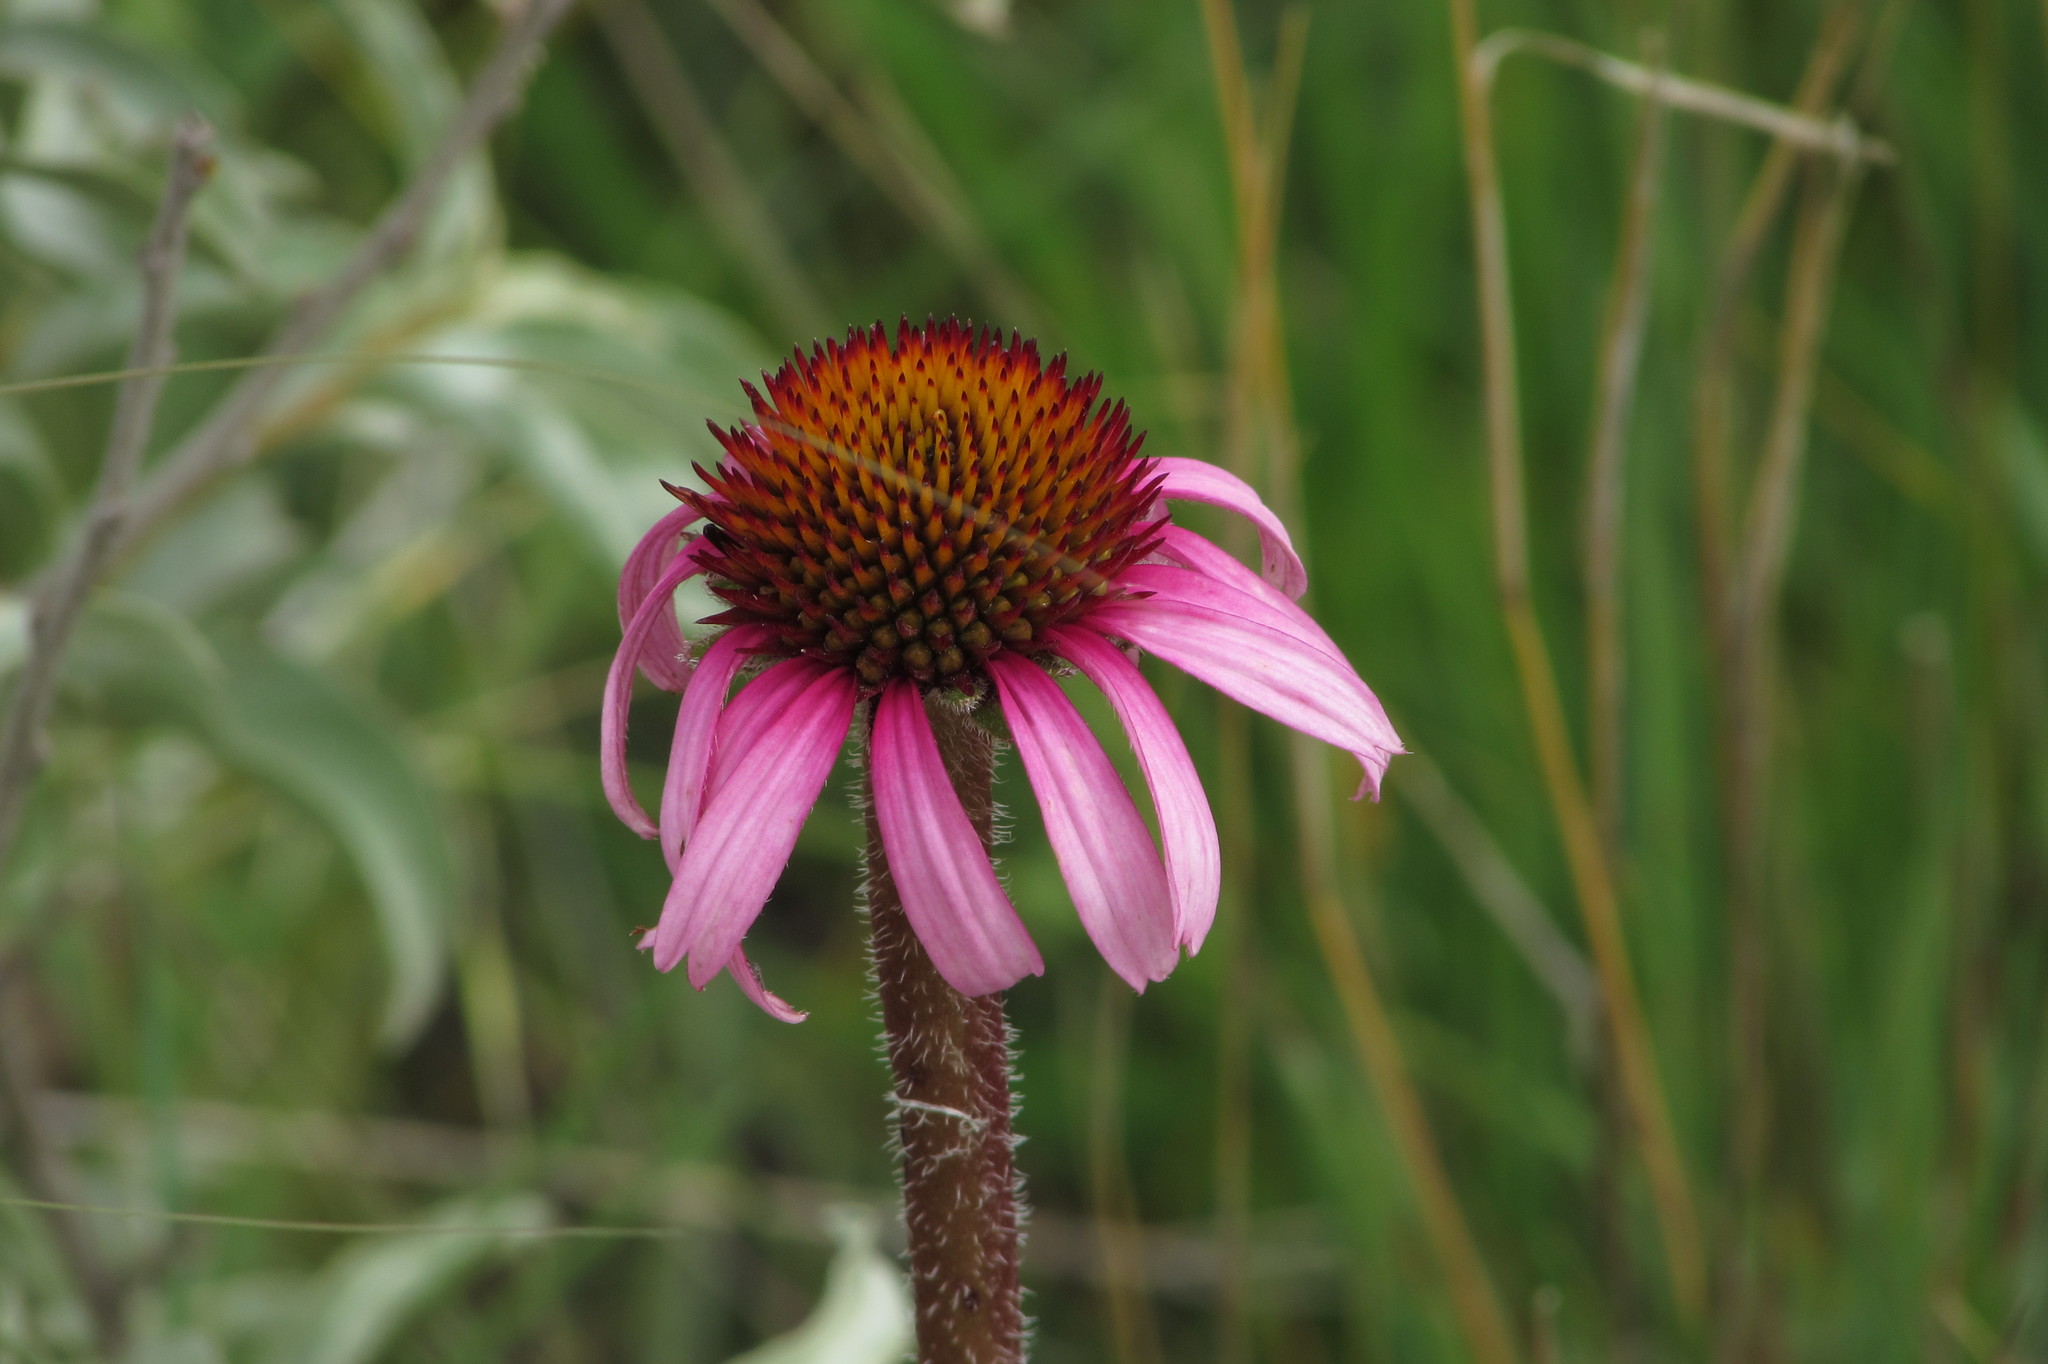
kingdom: Plantae
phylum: Tracheophyta
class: Magnoliopsida
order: Asterales
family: Asteraceae
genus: Echinacea
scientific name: Echinacea angustifolia
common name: Black-sampson echinacea
